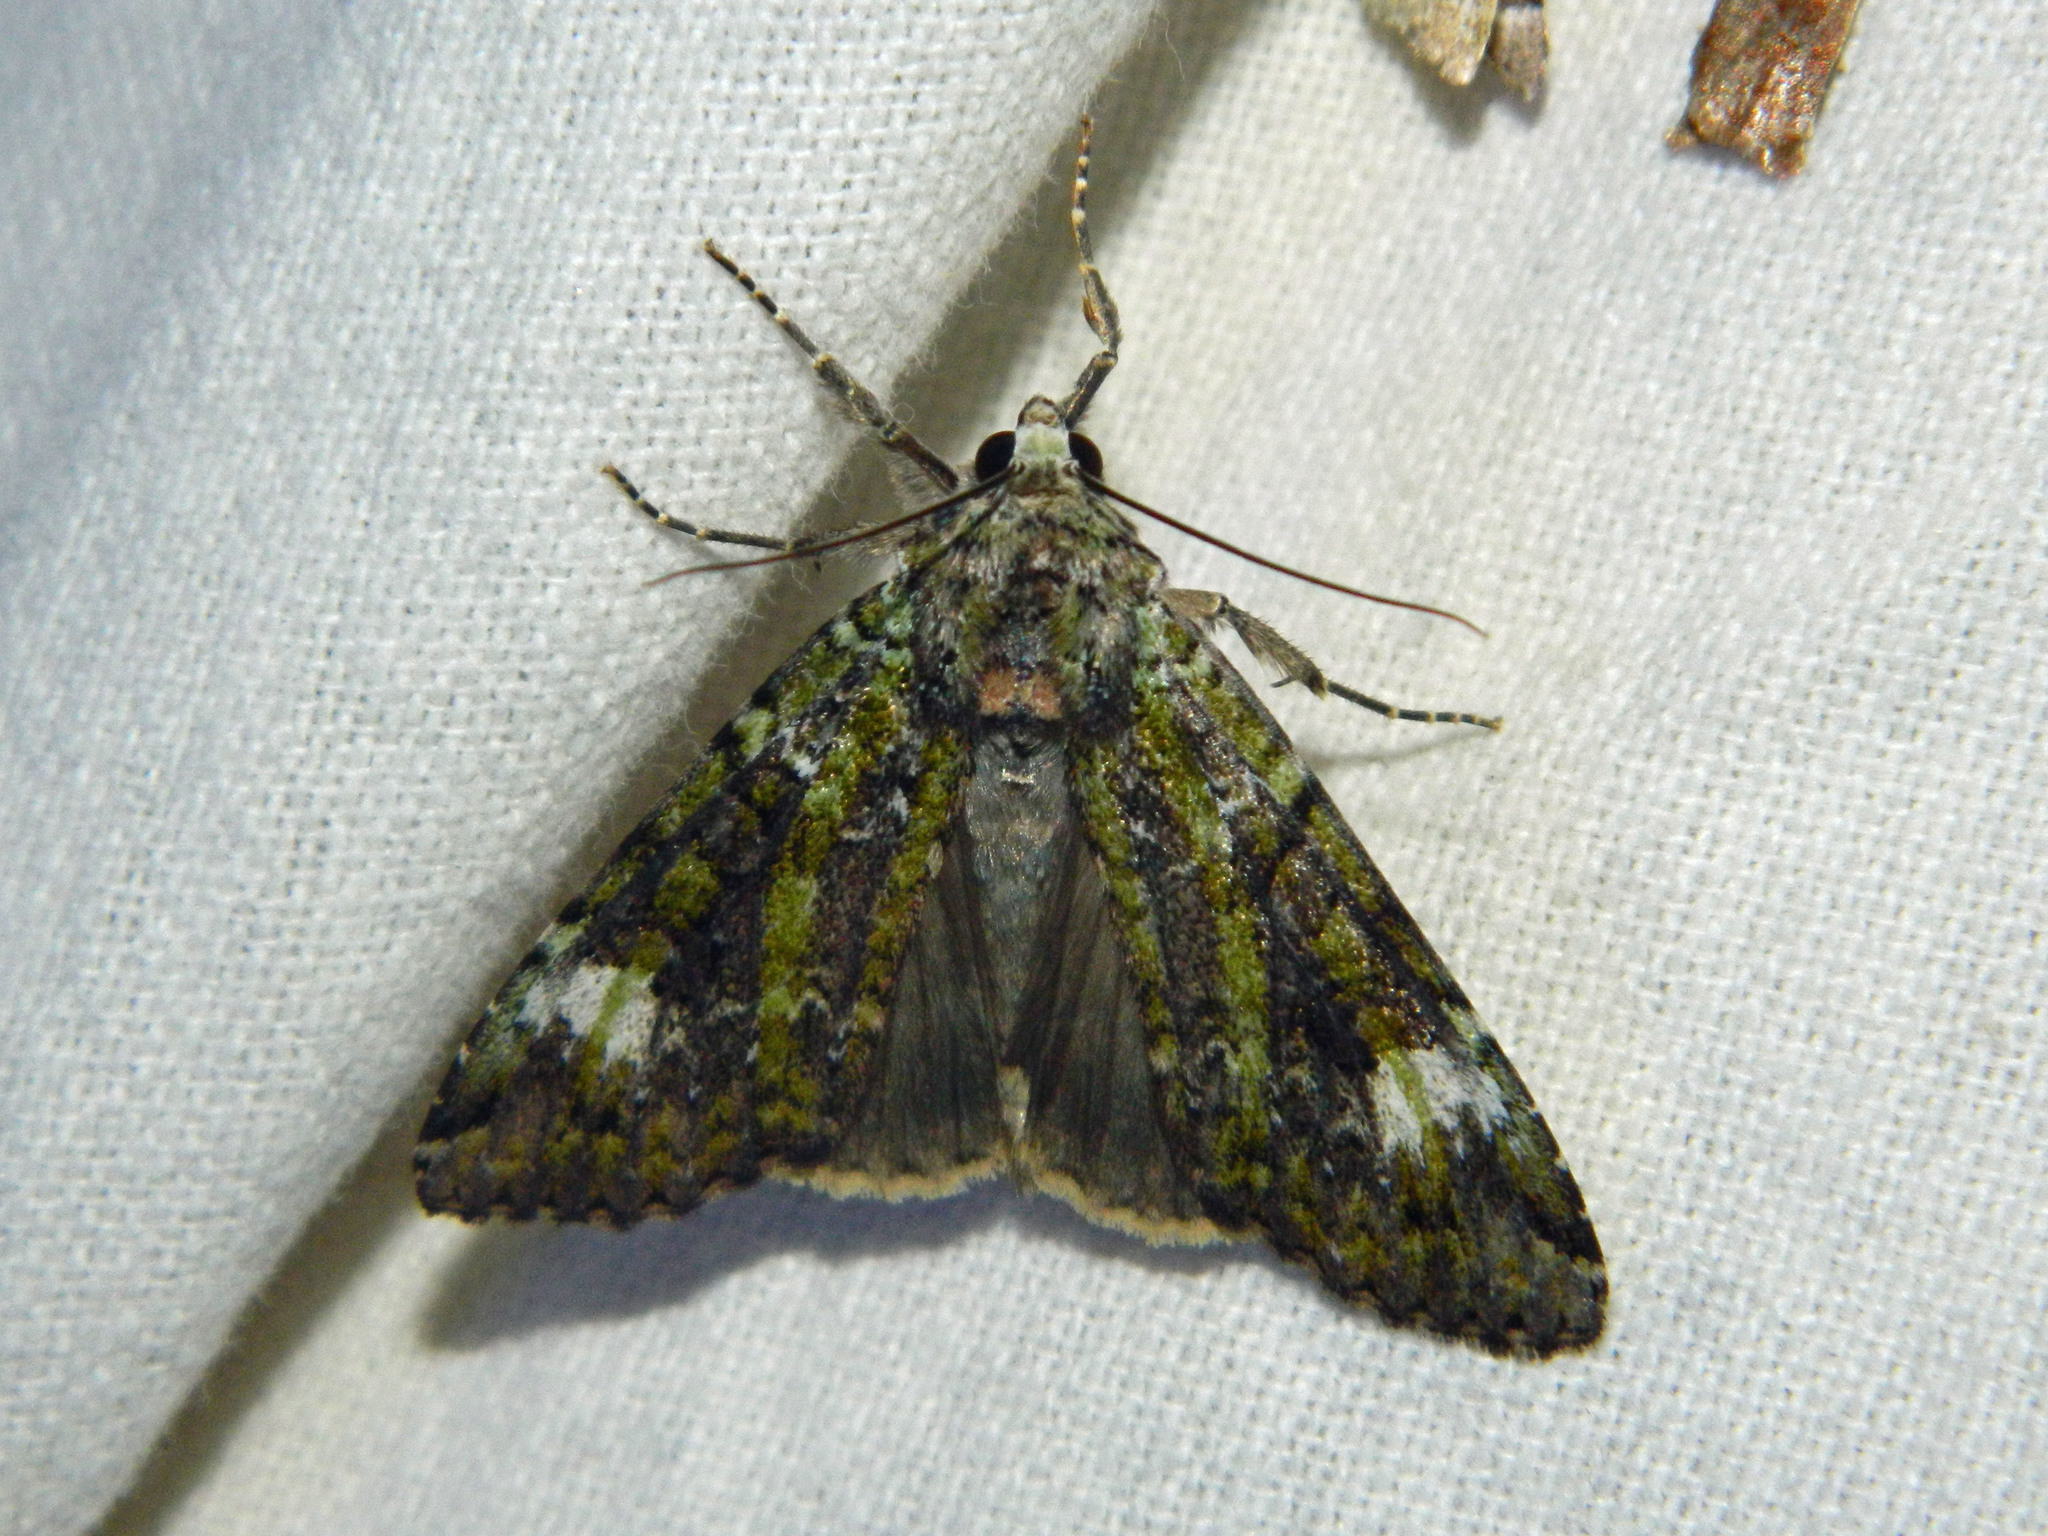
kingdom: Animalia
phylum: Arthropoda
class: Insecta
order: Lepidoptera
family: Noctuidae
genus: Anaplectoides
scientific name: Anaplectoides prasina
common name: Green arches
